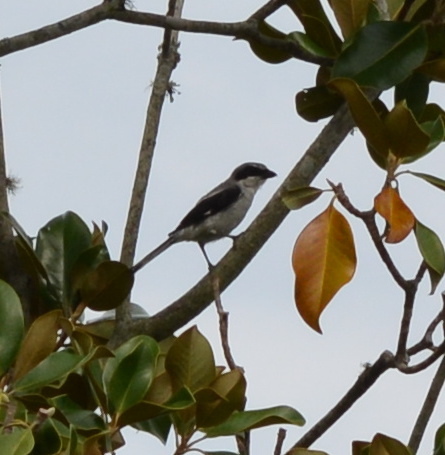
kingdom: Animalia
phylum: Chordata
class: Aves
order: Passeriformes
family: Laniidae
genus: Lanius
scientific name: Lanius ludovicianus
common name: Loggerhead shrike
